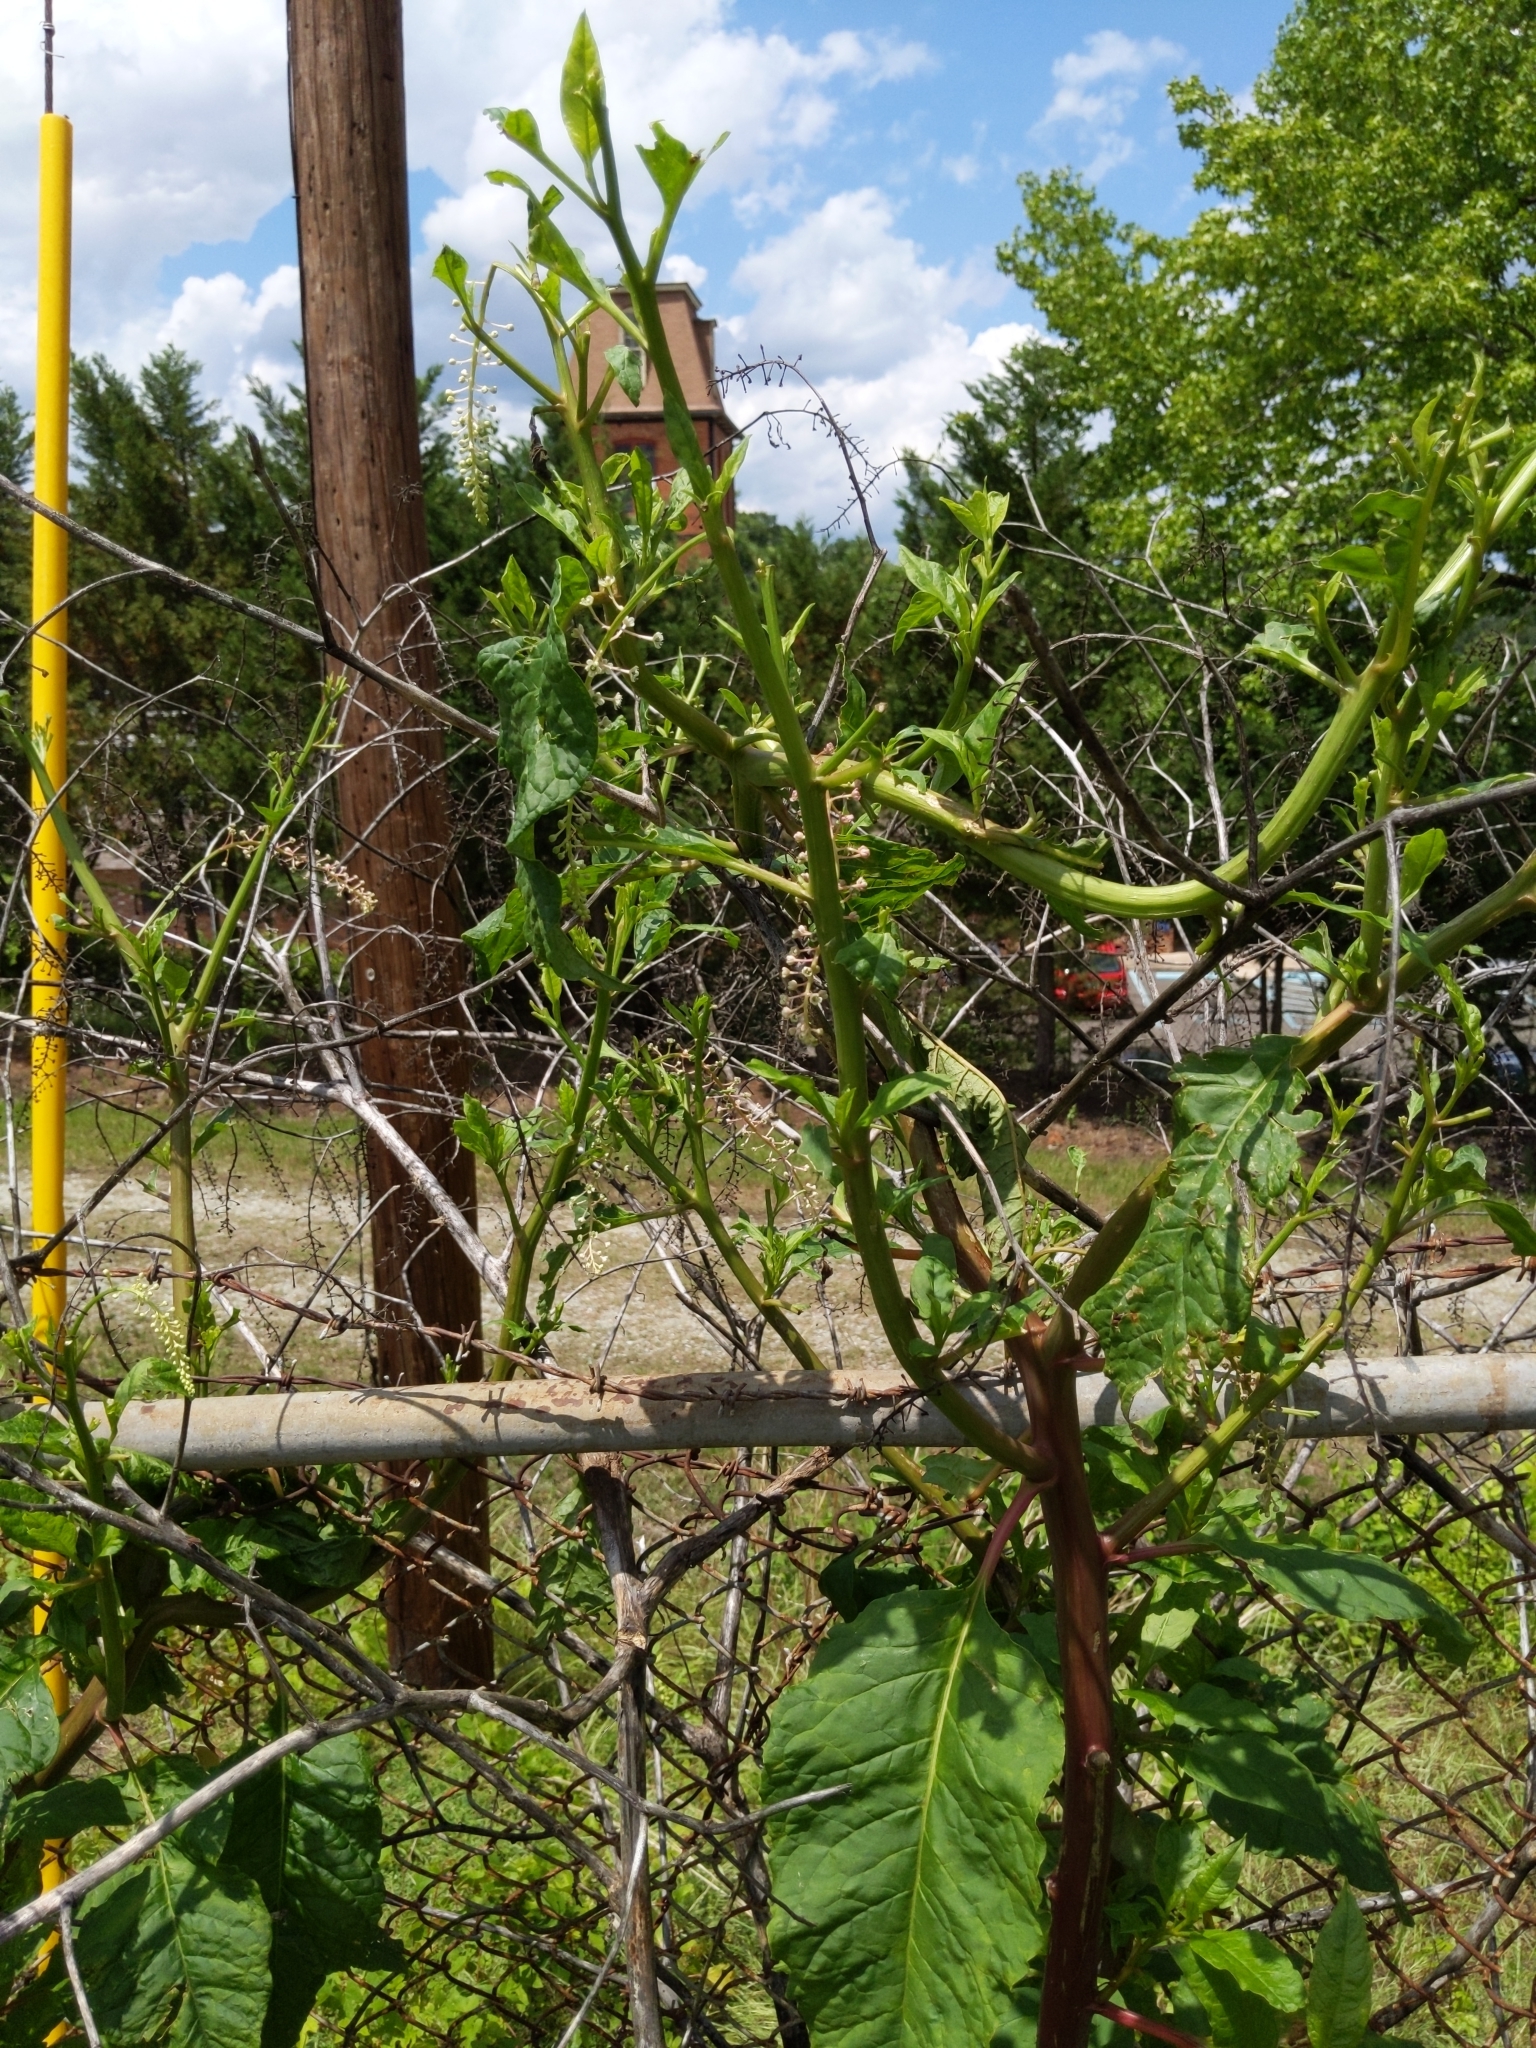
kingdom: Plantae
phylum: Tracheophyta
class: Magnoliopsida
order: Caryophyllales
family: Phytolaccaceae
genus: Phytolacca
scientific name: Phytolacca americana
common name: American pokeweed
